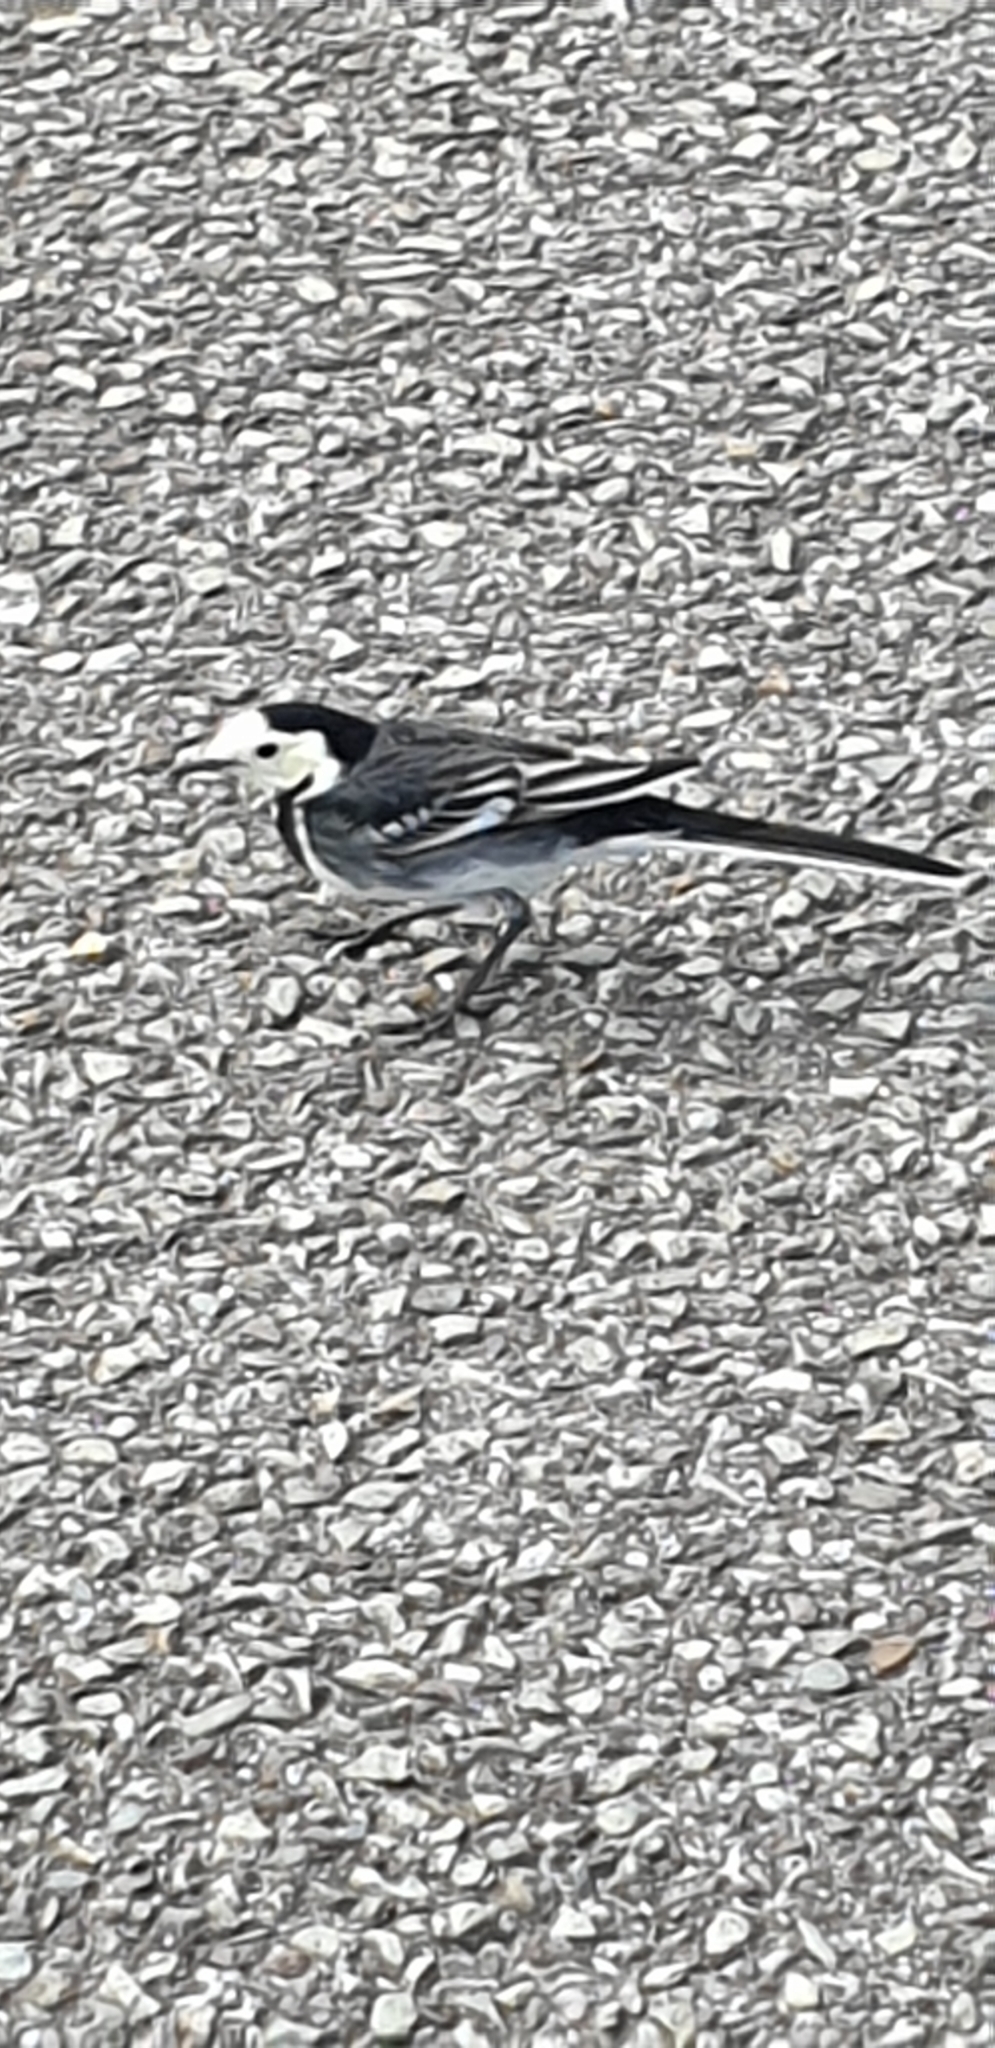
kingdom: Animalia
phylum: Chordata
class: Aves
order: Passeriformes
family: Motacillidae
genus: Motacilla
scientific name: Motacilla alba
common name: White wagtail
